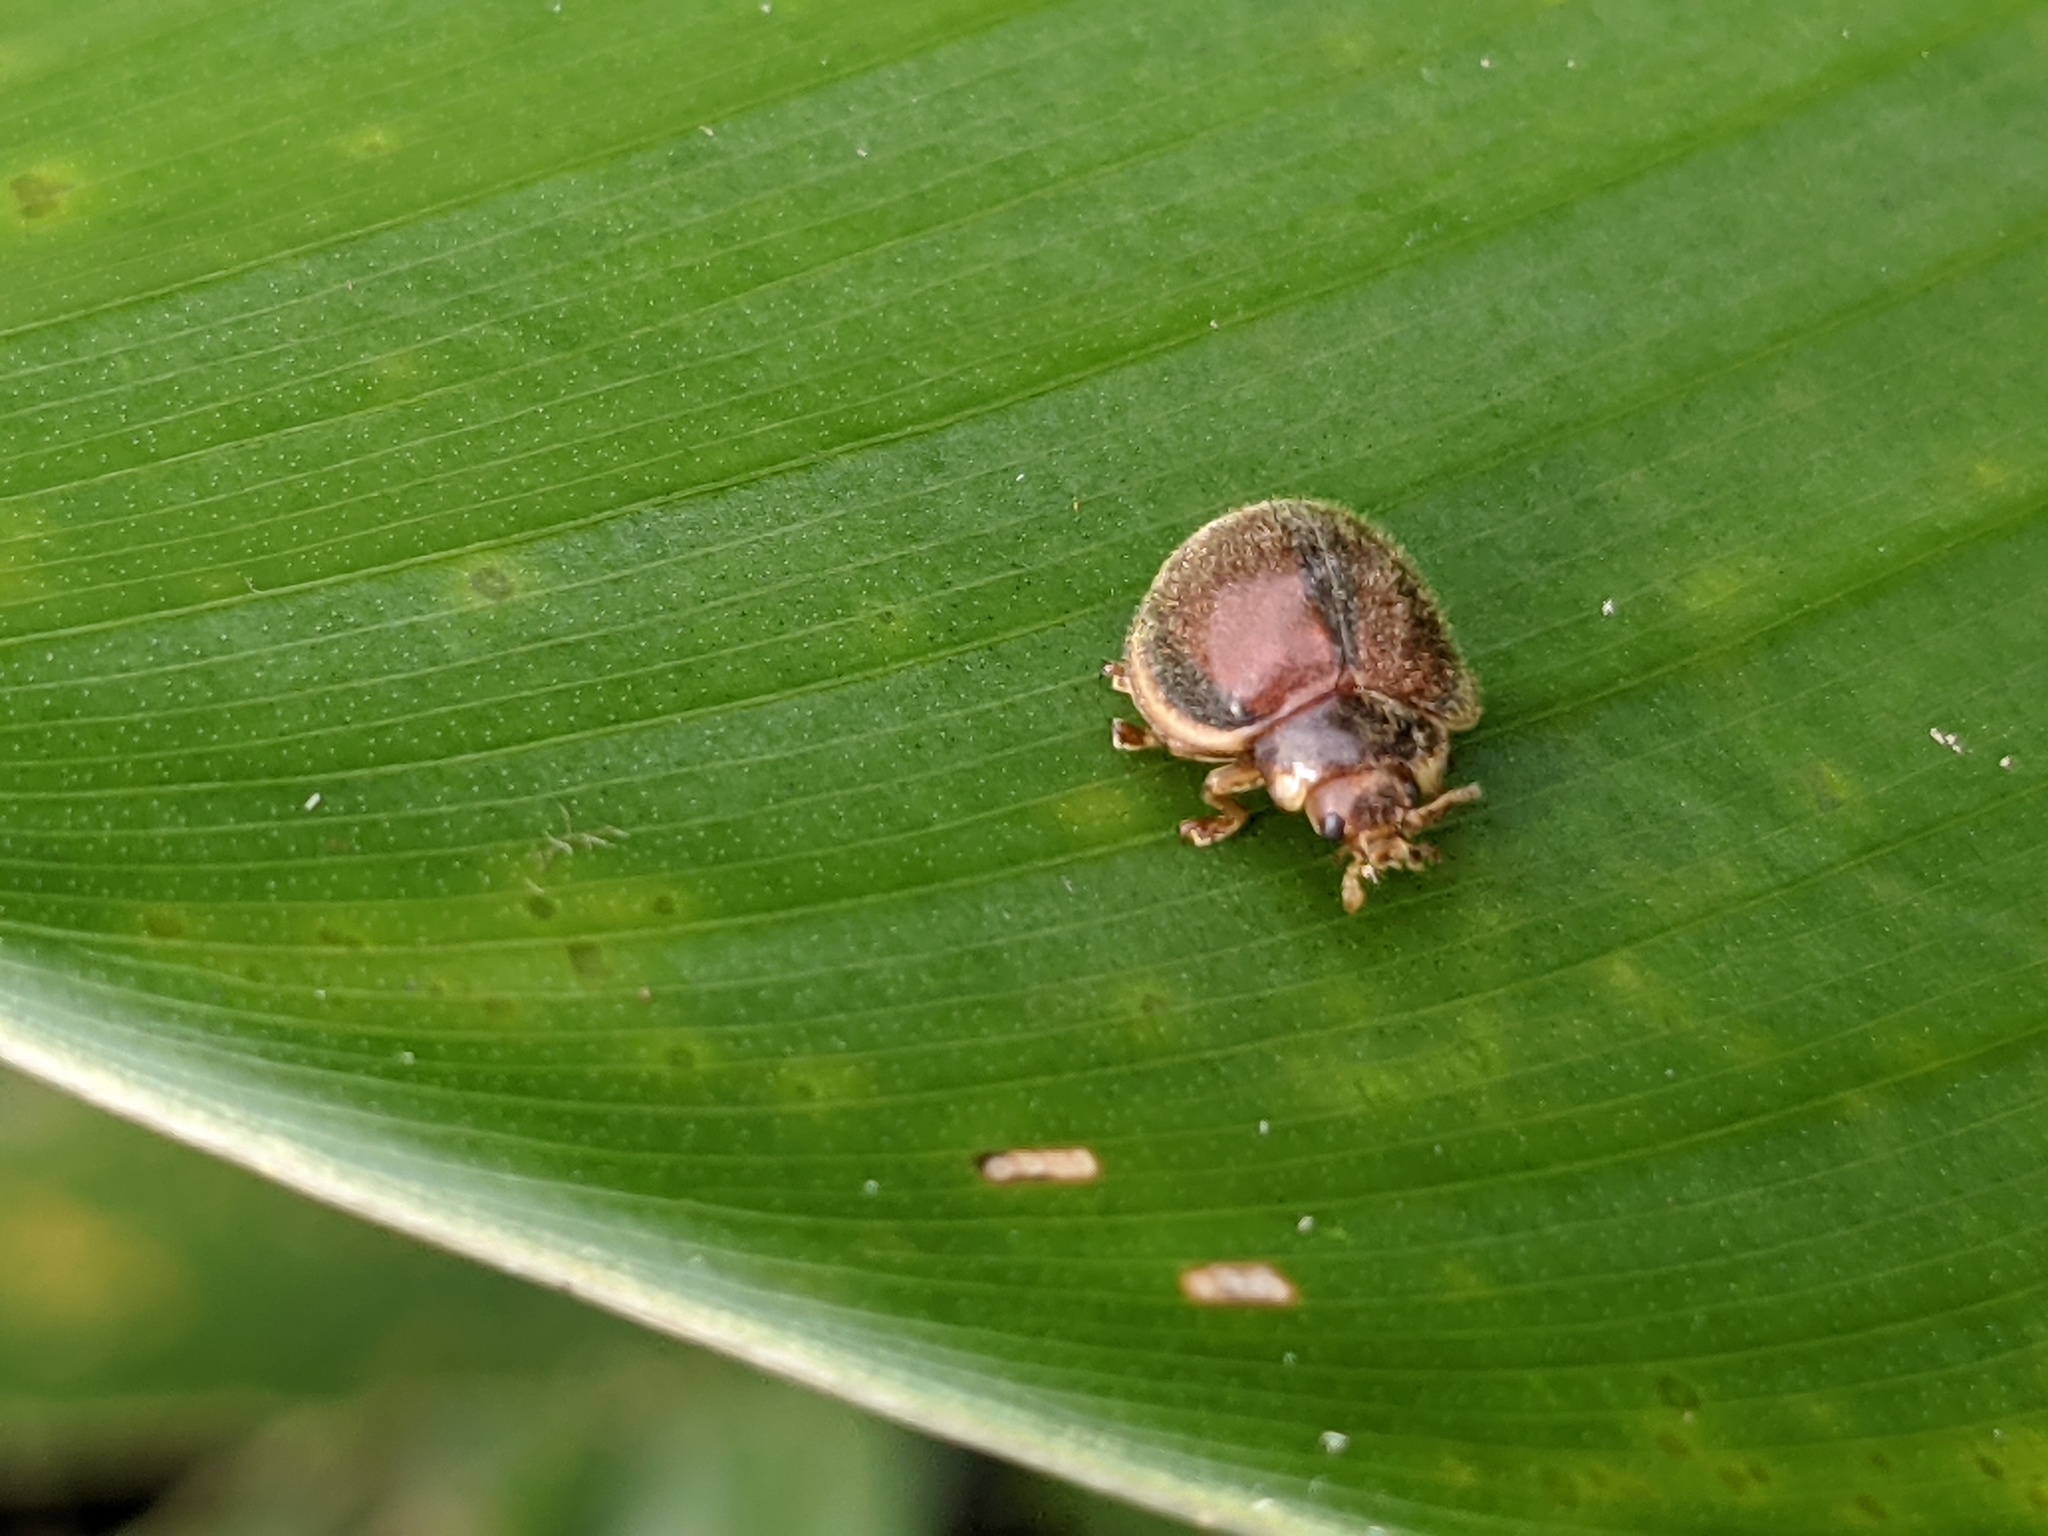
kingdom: Animalia
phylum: Arthropoda
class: Insecta
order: Coleoptera
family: Coccinellidae
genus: Epilachna
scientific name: Epilachna cacica
